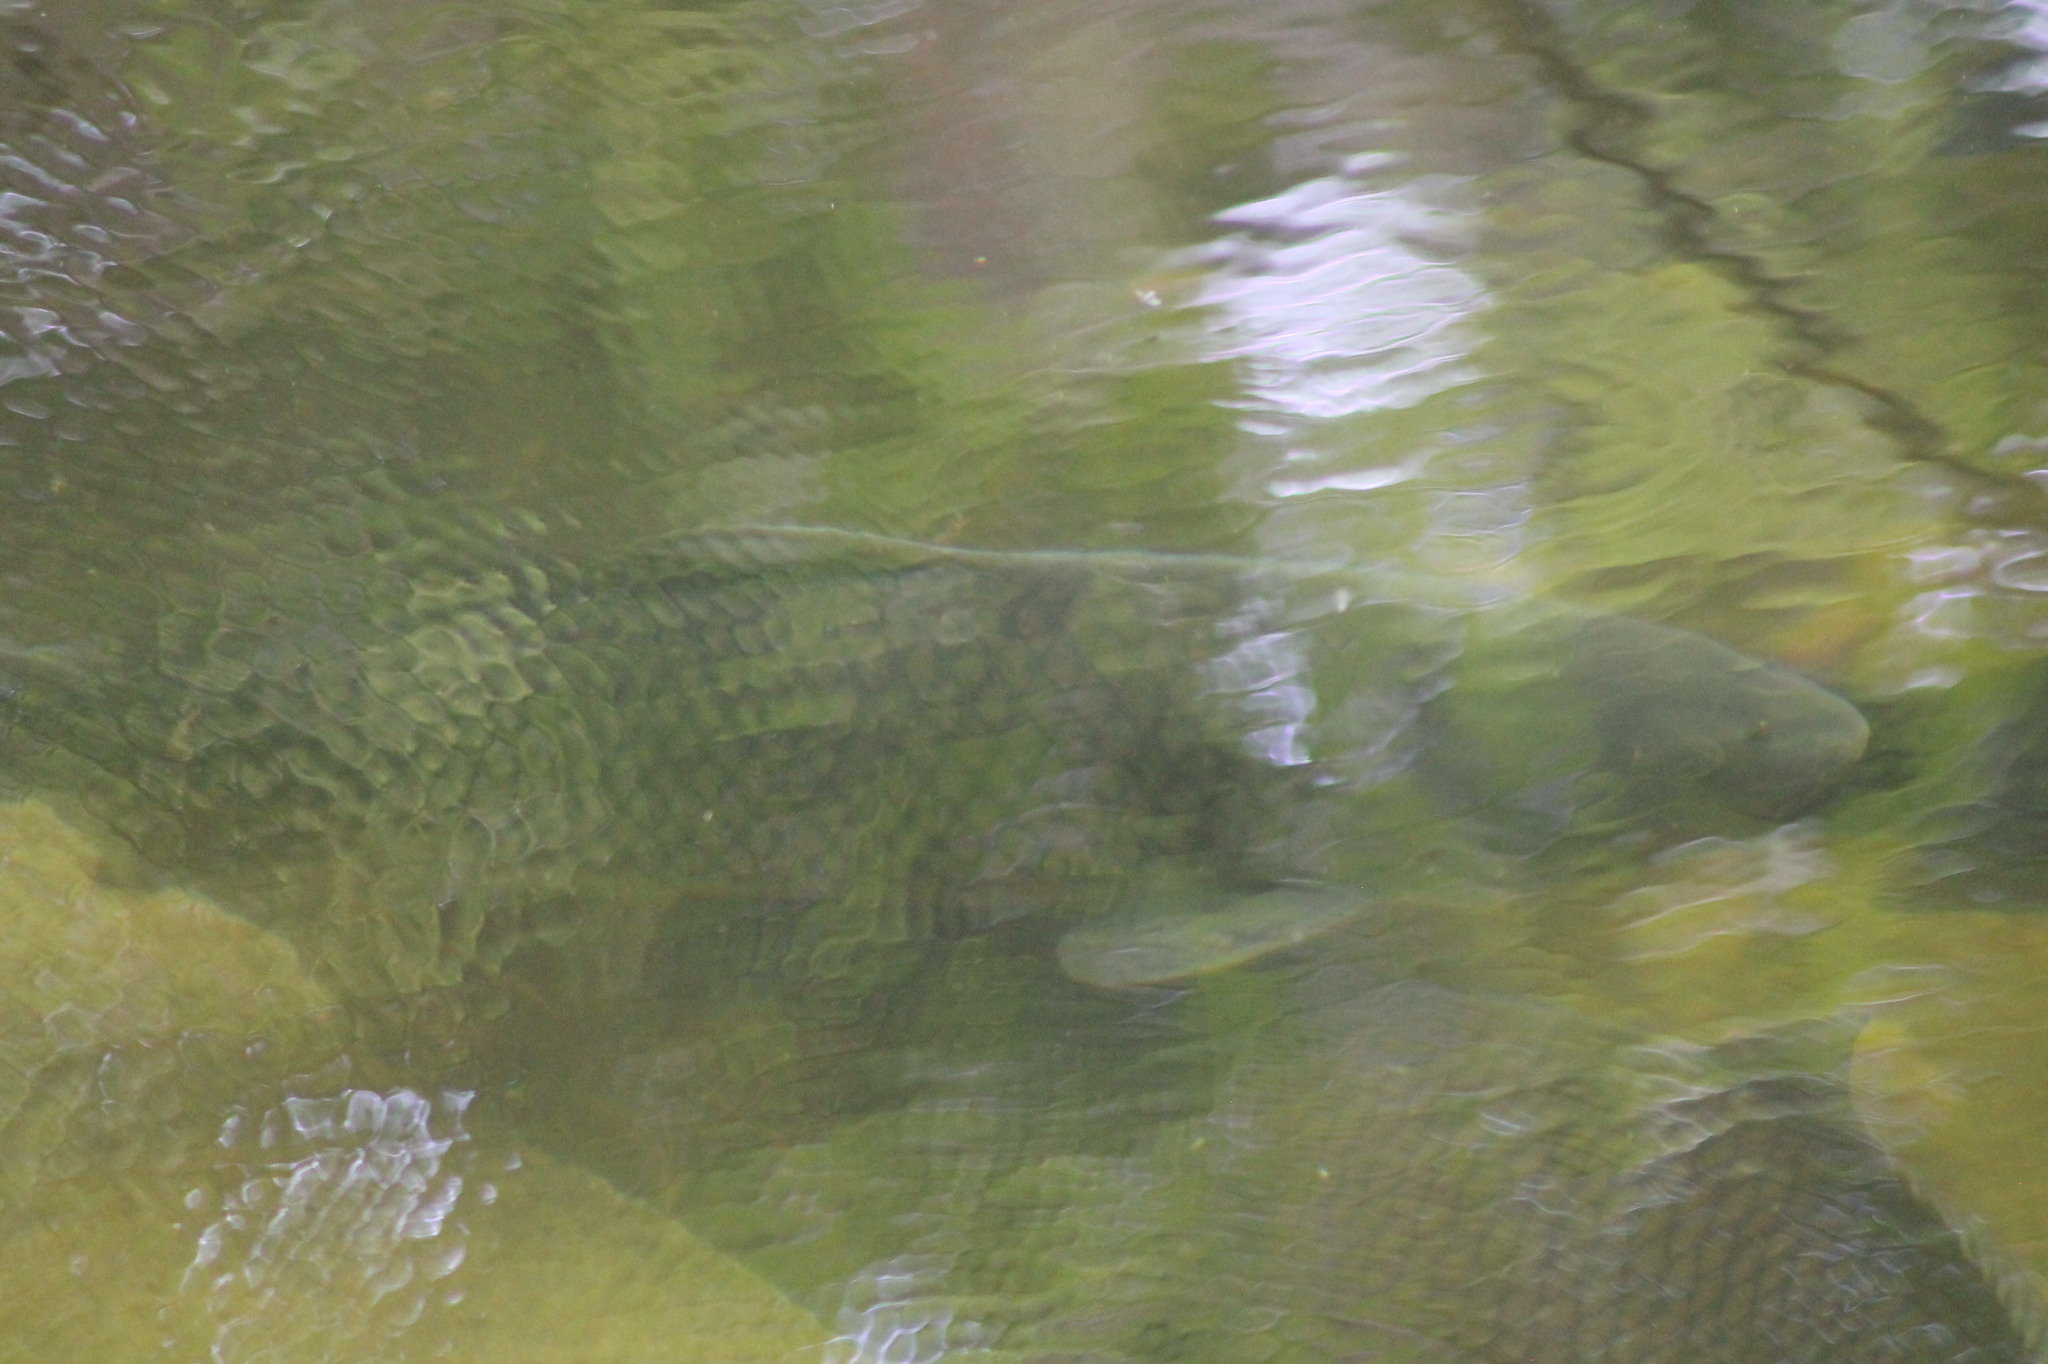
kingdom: Animalia
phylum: Chordata
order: Cypriniformes
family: Cyprinidae
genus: Cyprinus
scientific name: Cyprinus carpio
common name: Common carp
